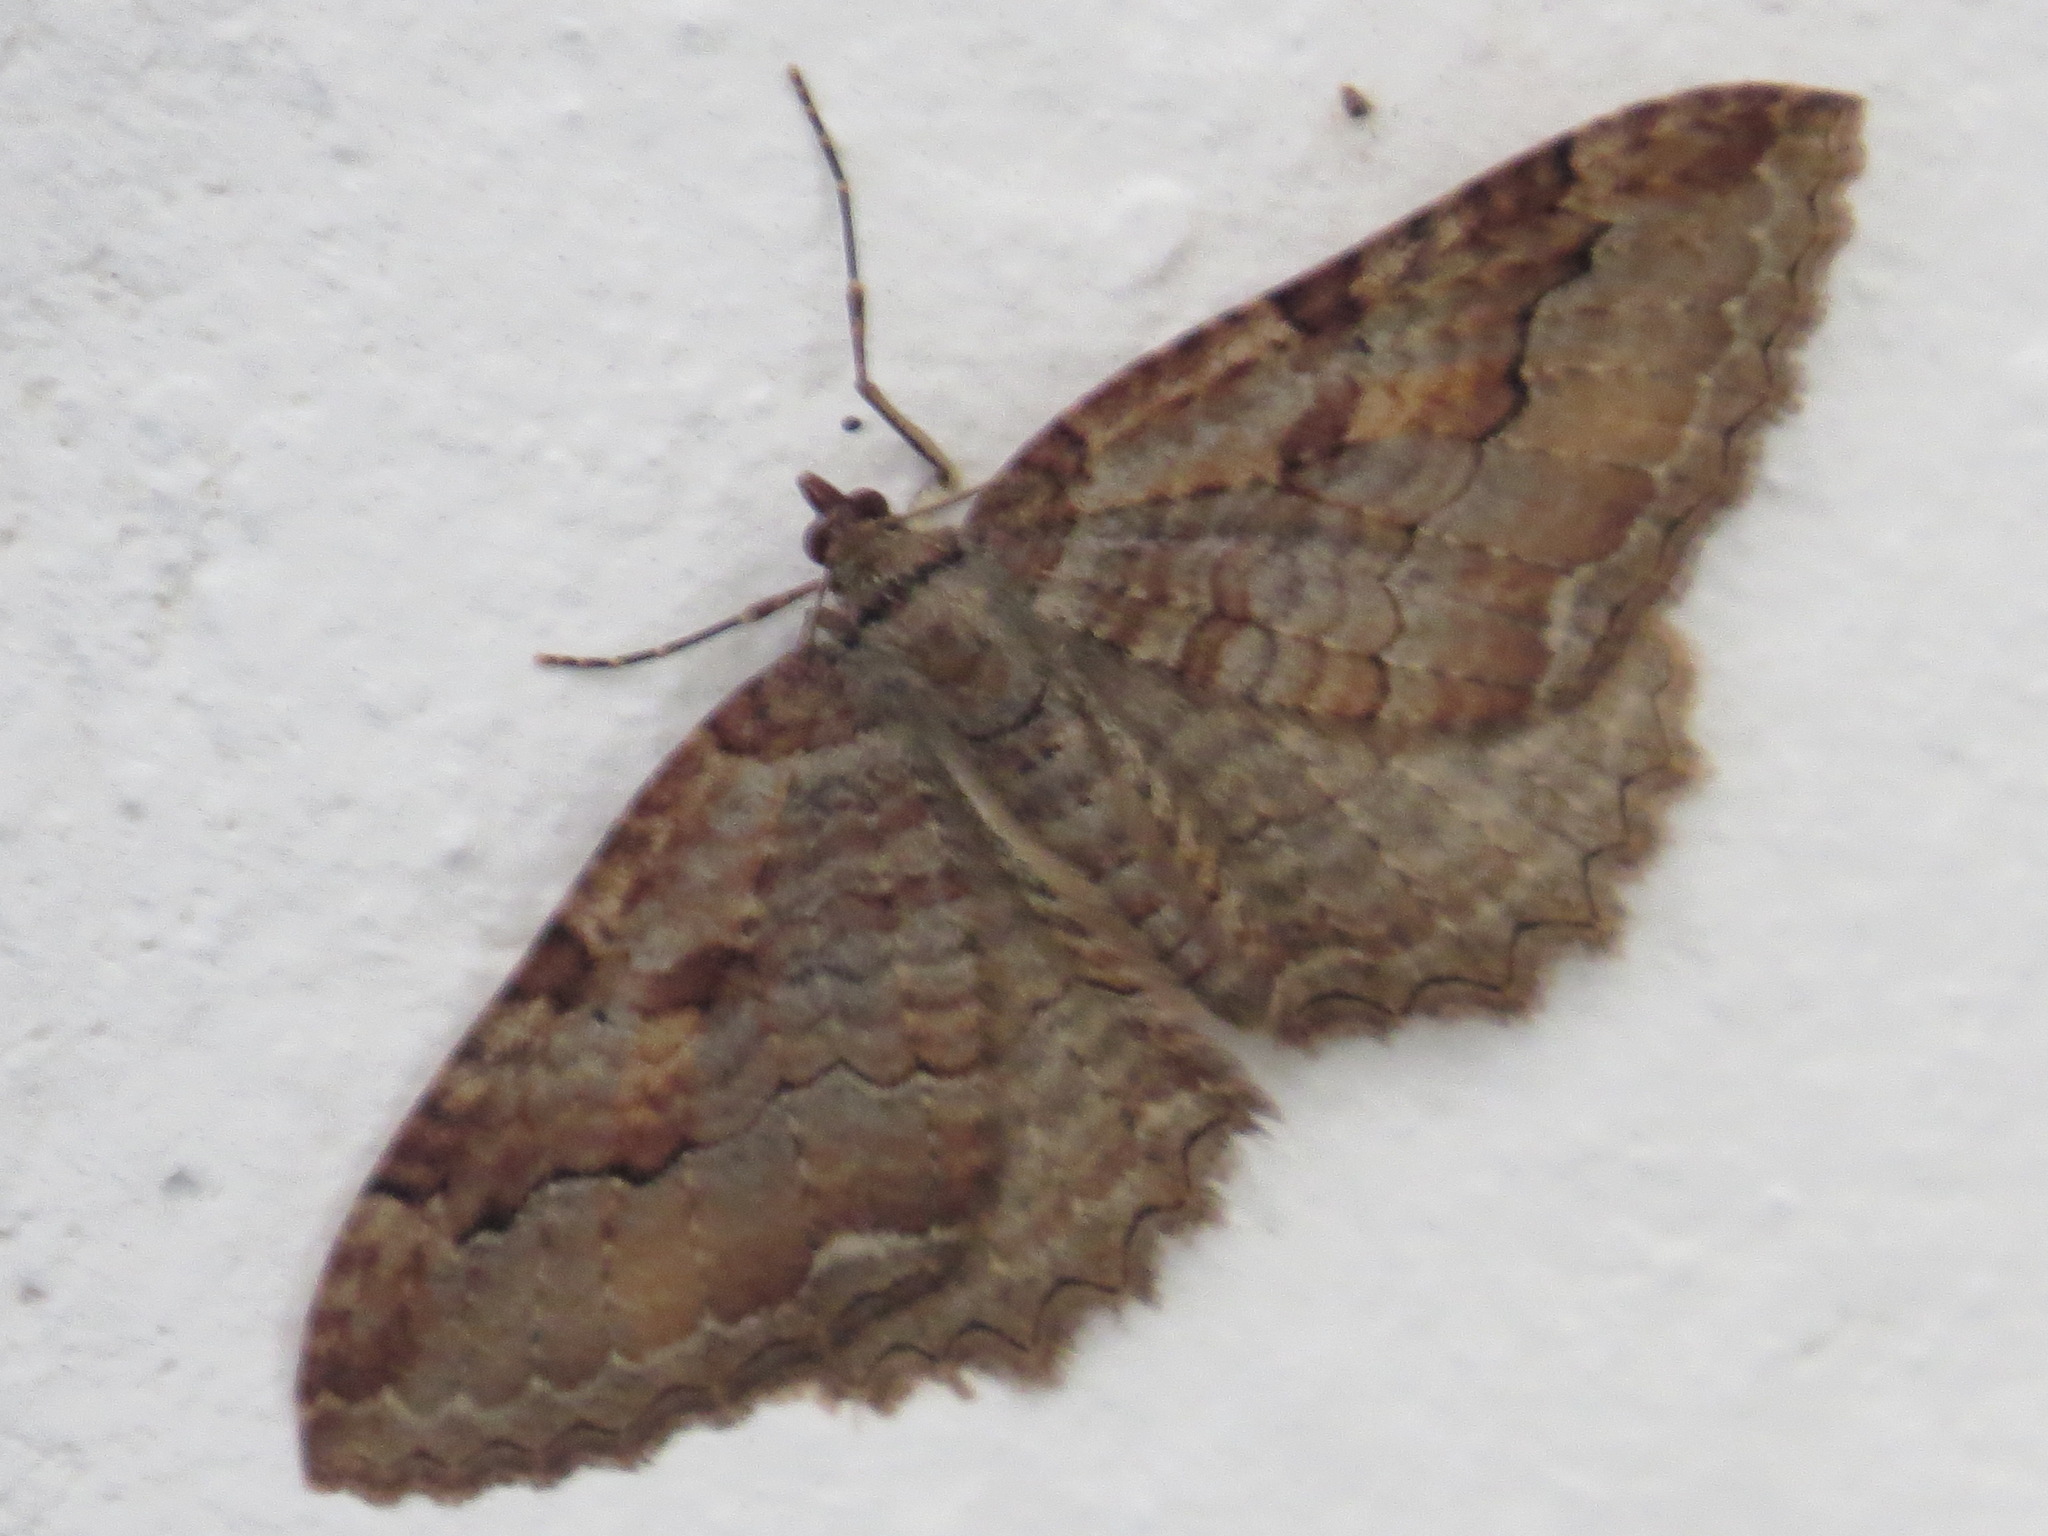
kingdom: Animalia
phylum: Arthropoda
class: Insecta
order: Lepidoptera
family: Geometridae
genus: Triphosa
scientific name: Triphosa haesitata
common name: Tissue moth
